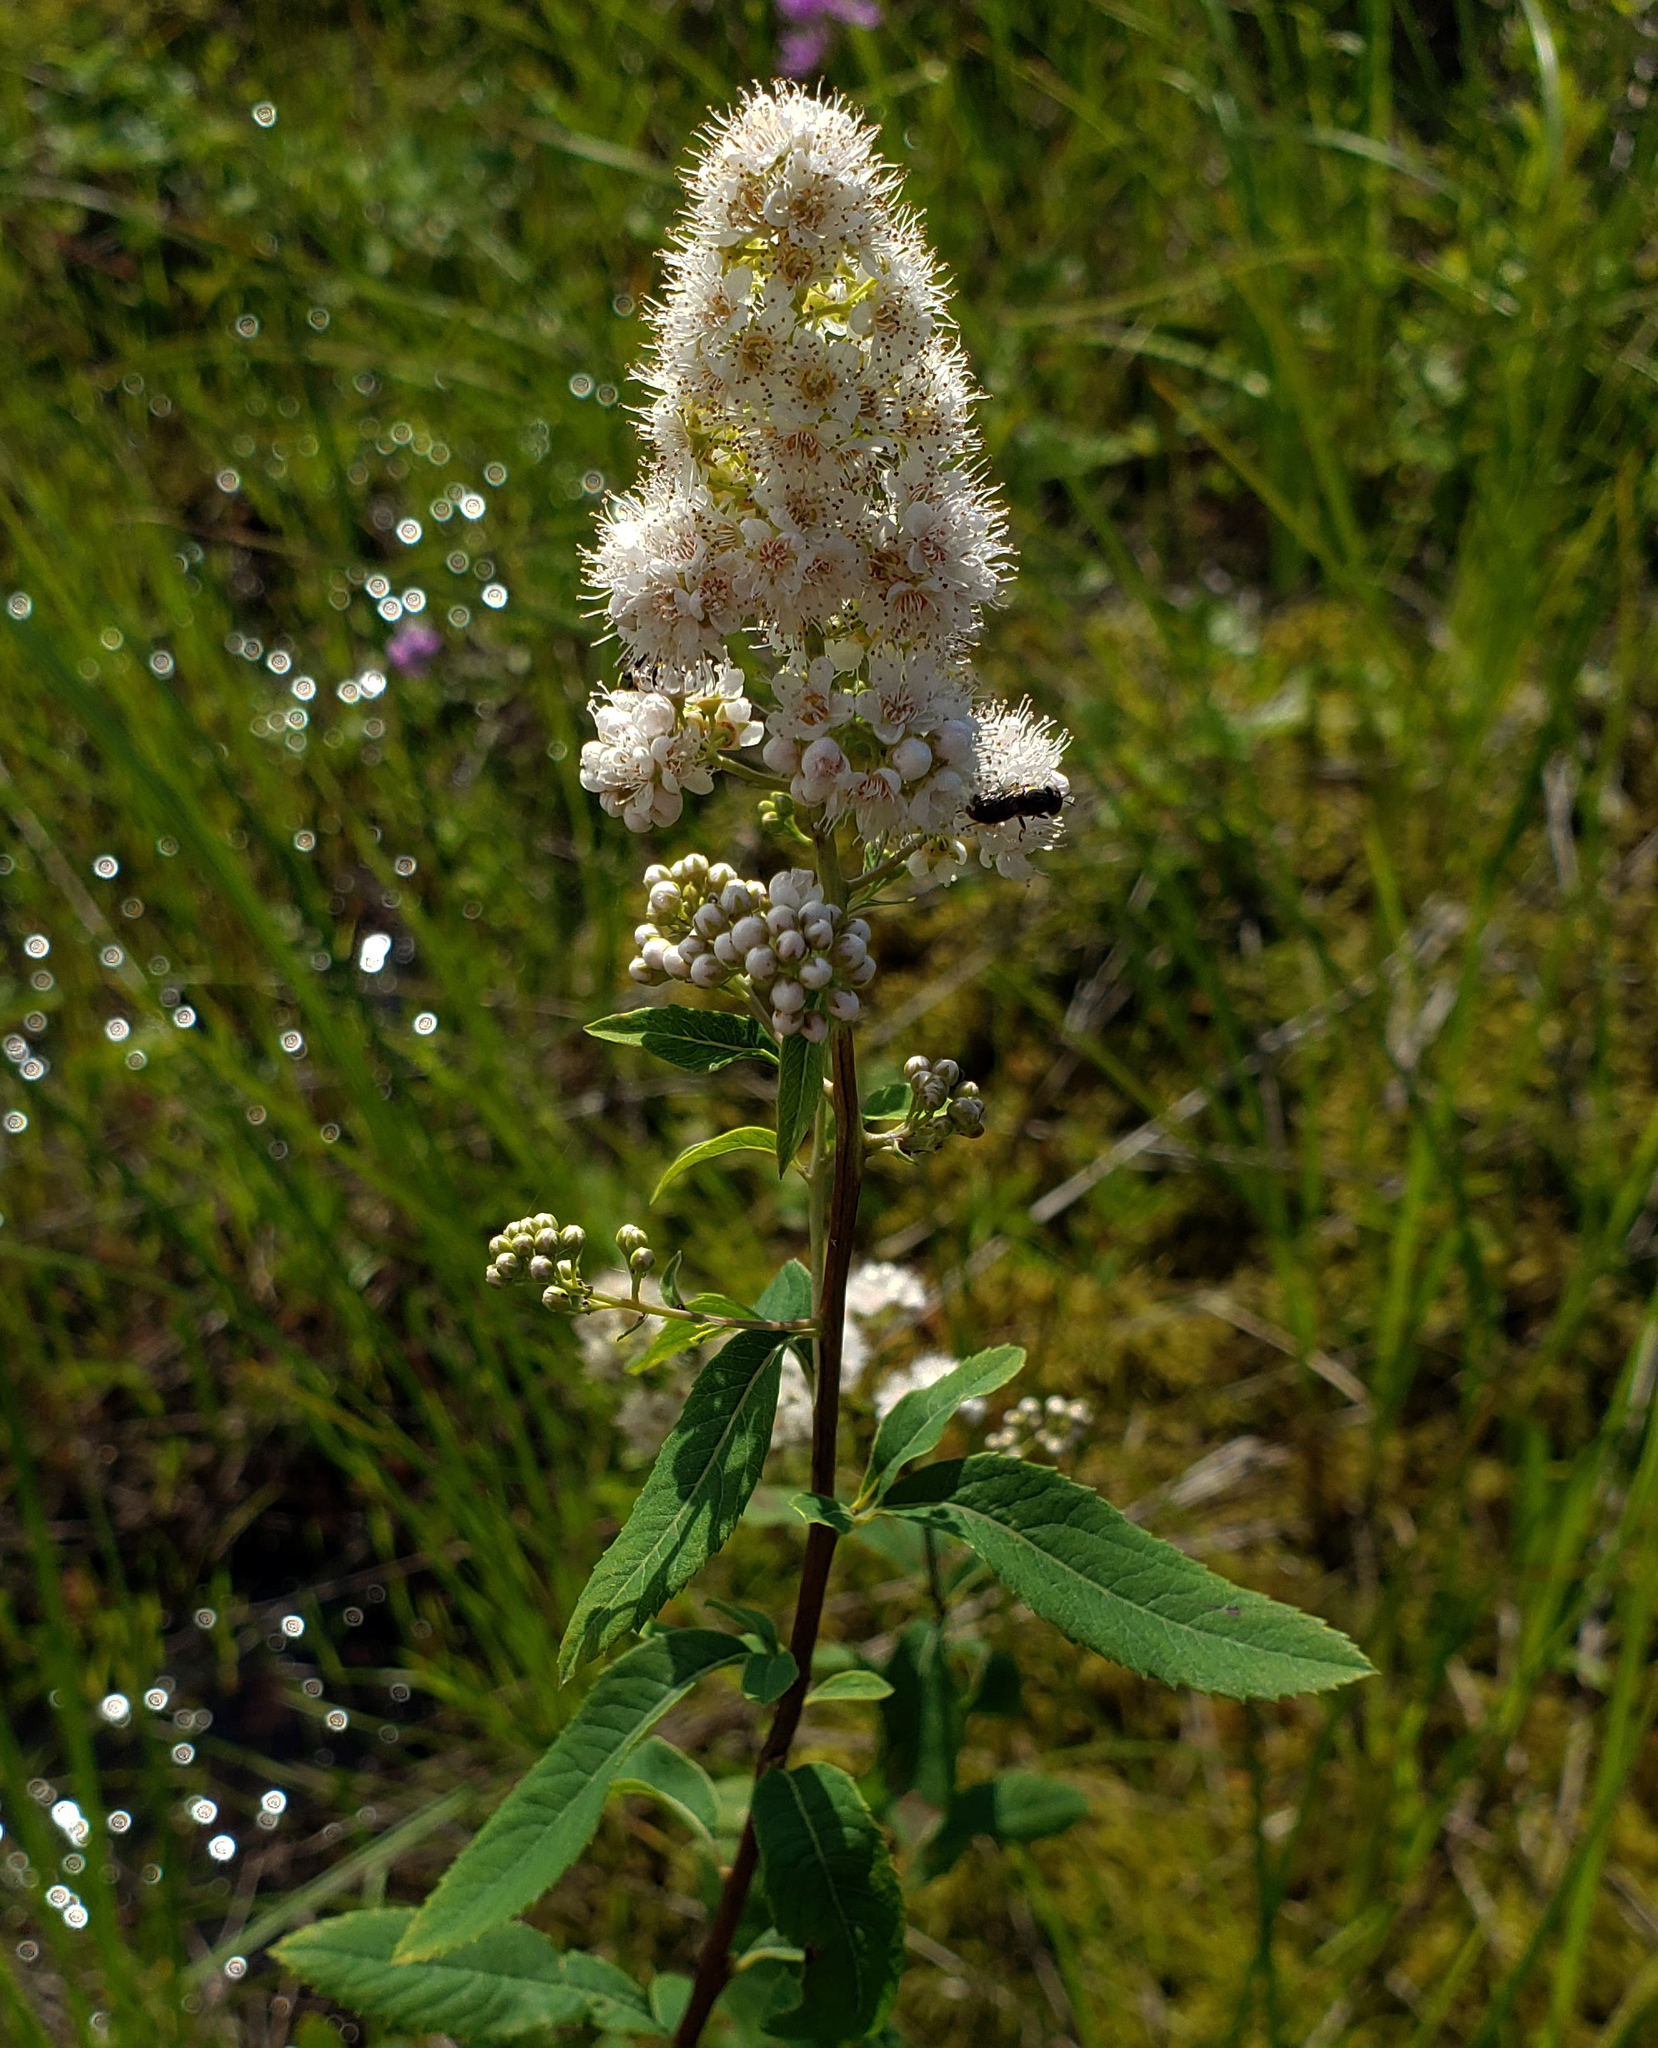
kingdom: Plantae
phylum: Tracheophyta
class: Magnoliopsida
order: Rosales
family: Rosaceae
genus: Spiraea
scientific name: Spiraea alba
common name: Pale bridewort
